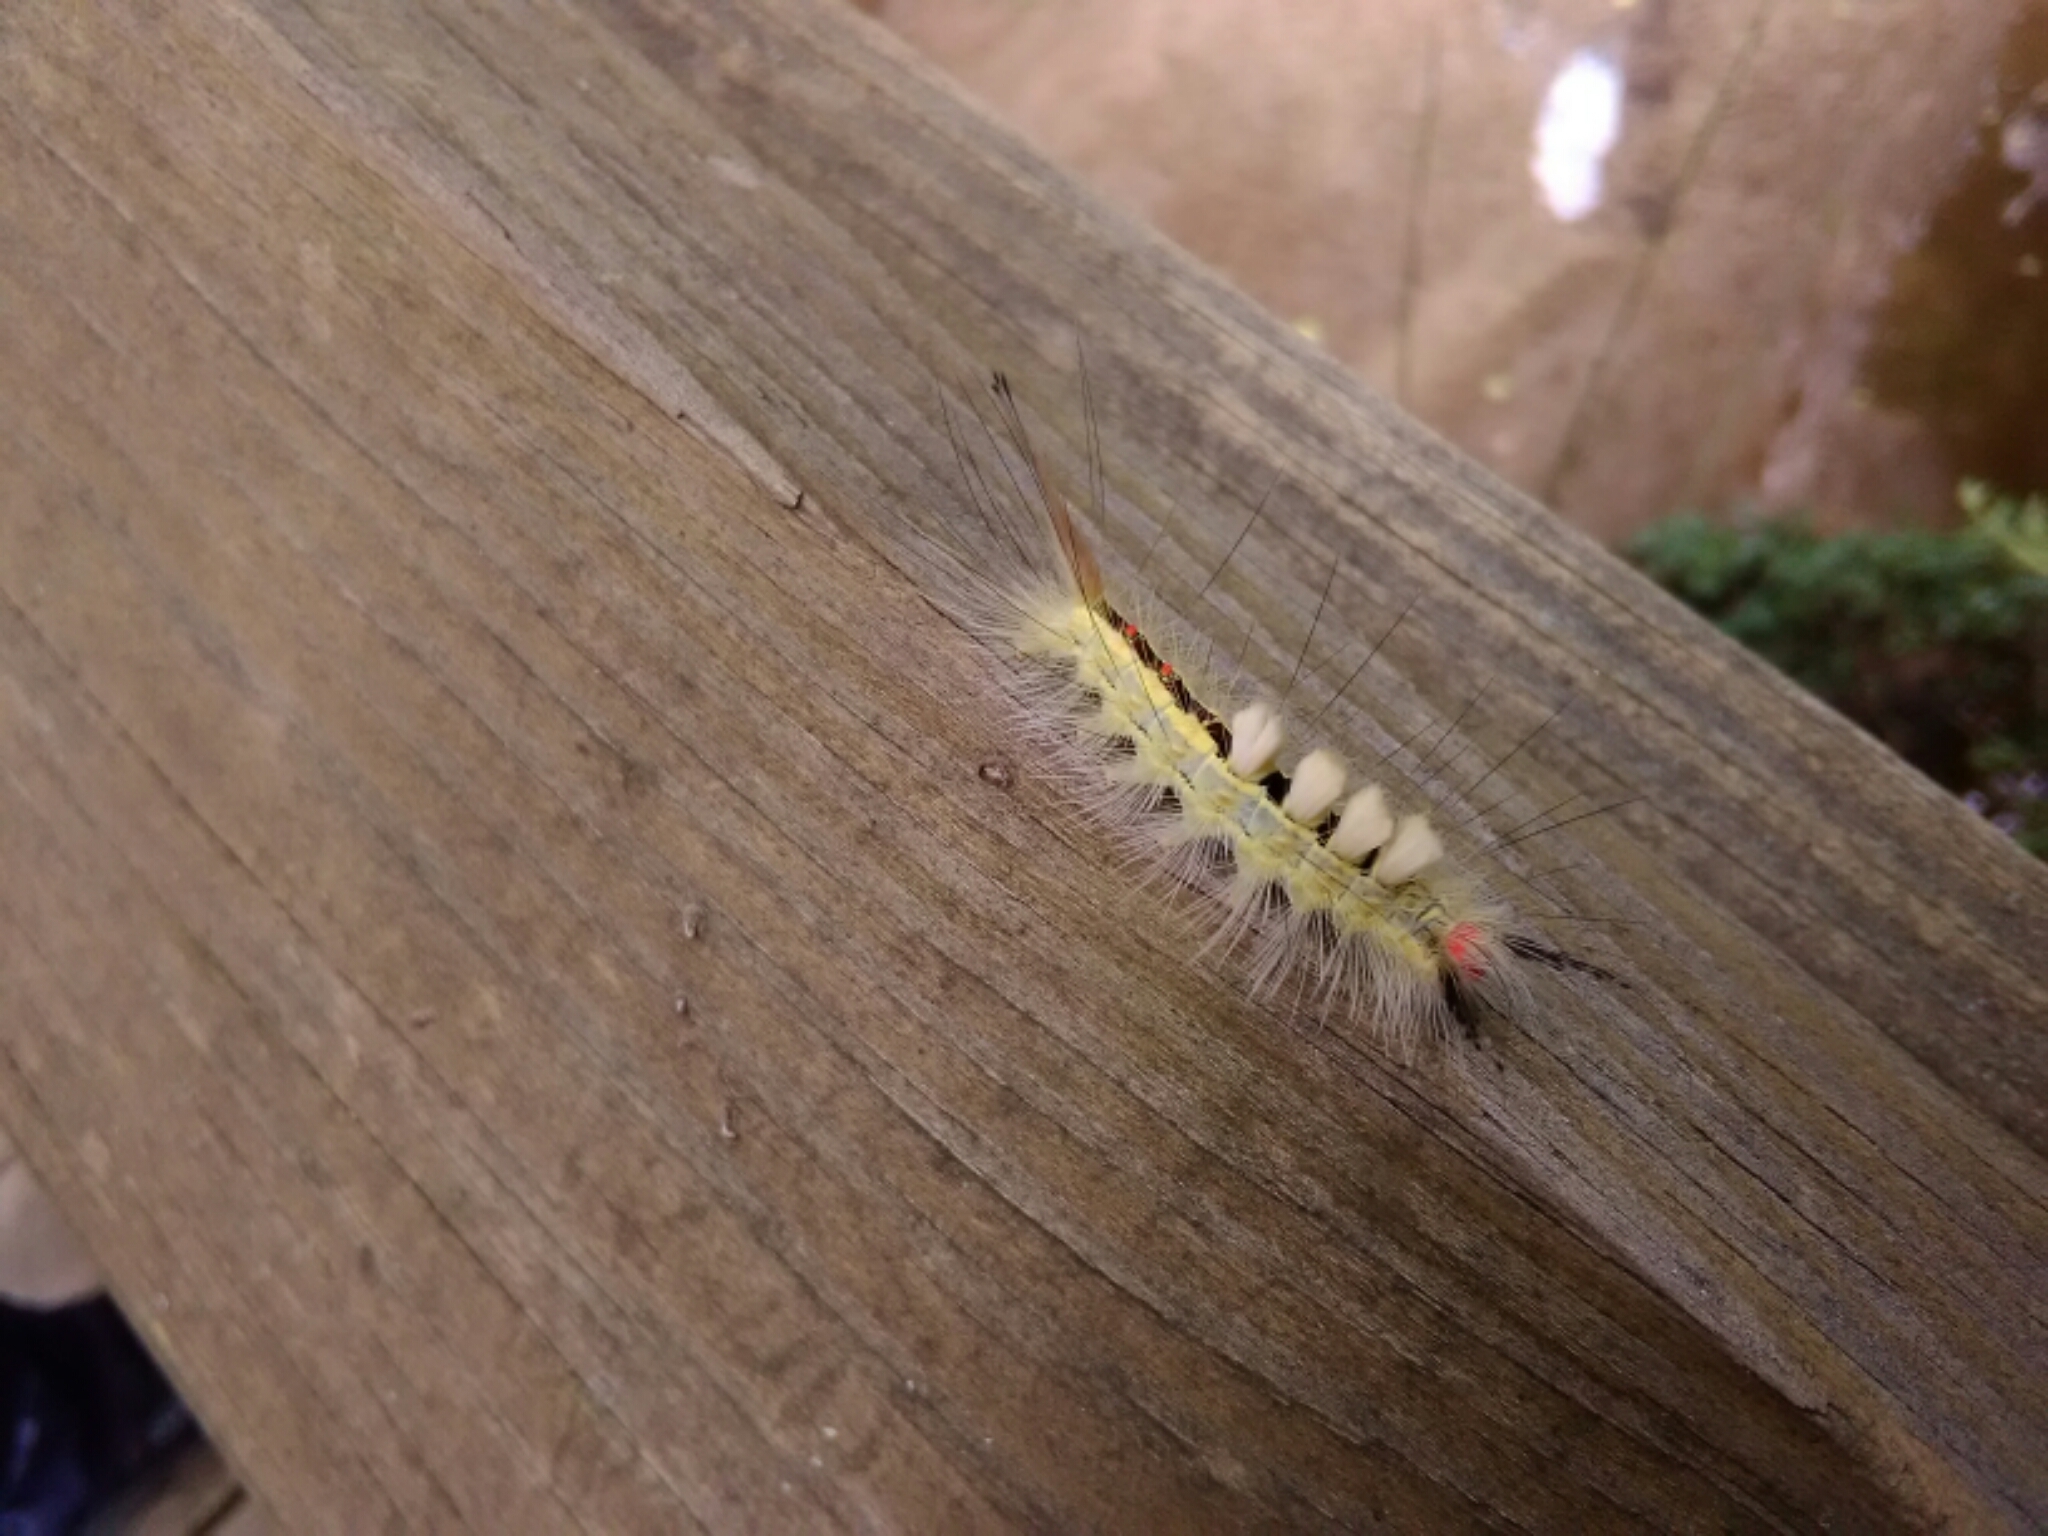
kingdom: Animalia
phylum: Arthropoda
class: Insecta
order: Lepidoptera
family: Erebidae
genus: Orgyia
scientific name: Orgyia leucostigma
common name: White-marked tussock moth
